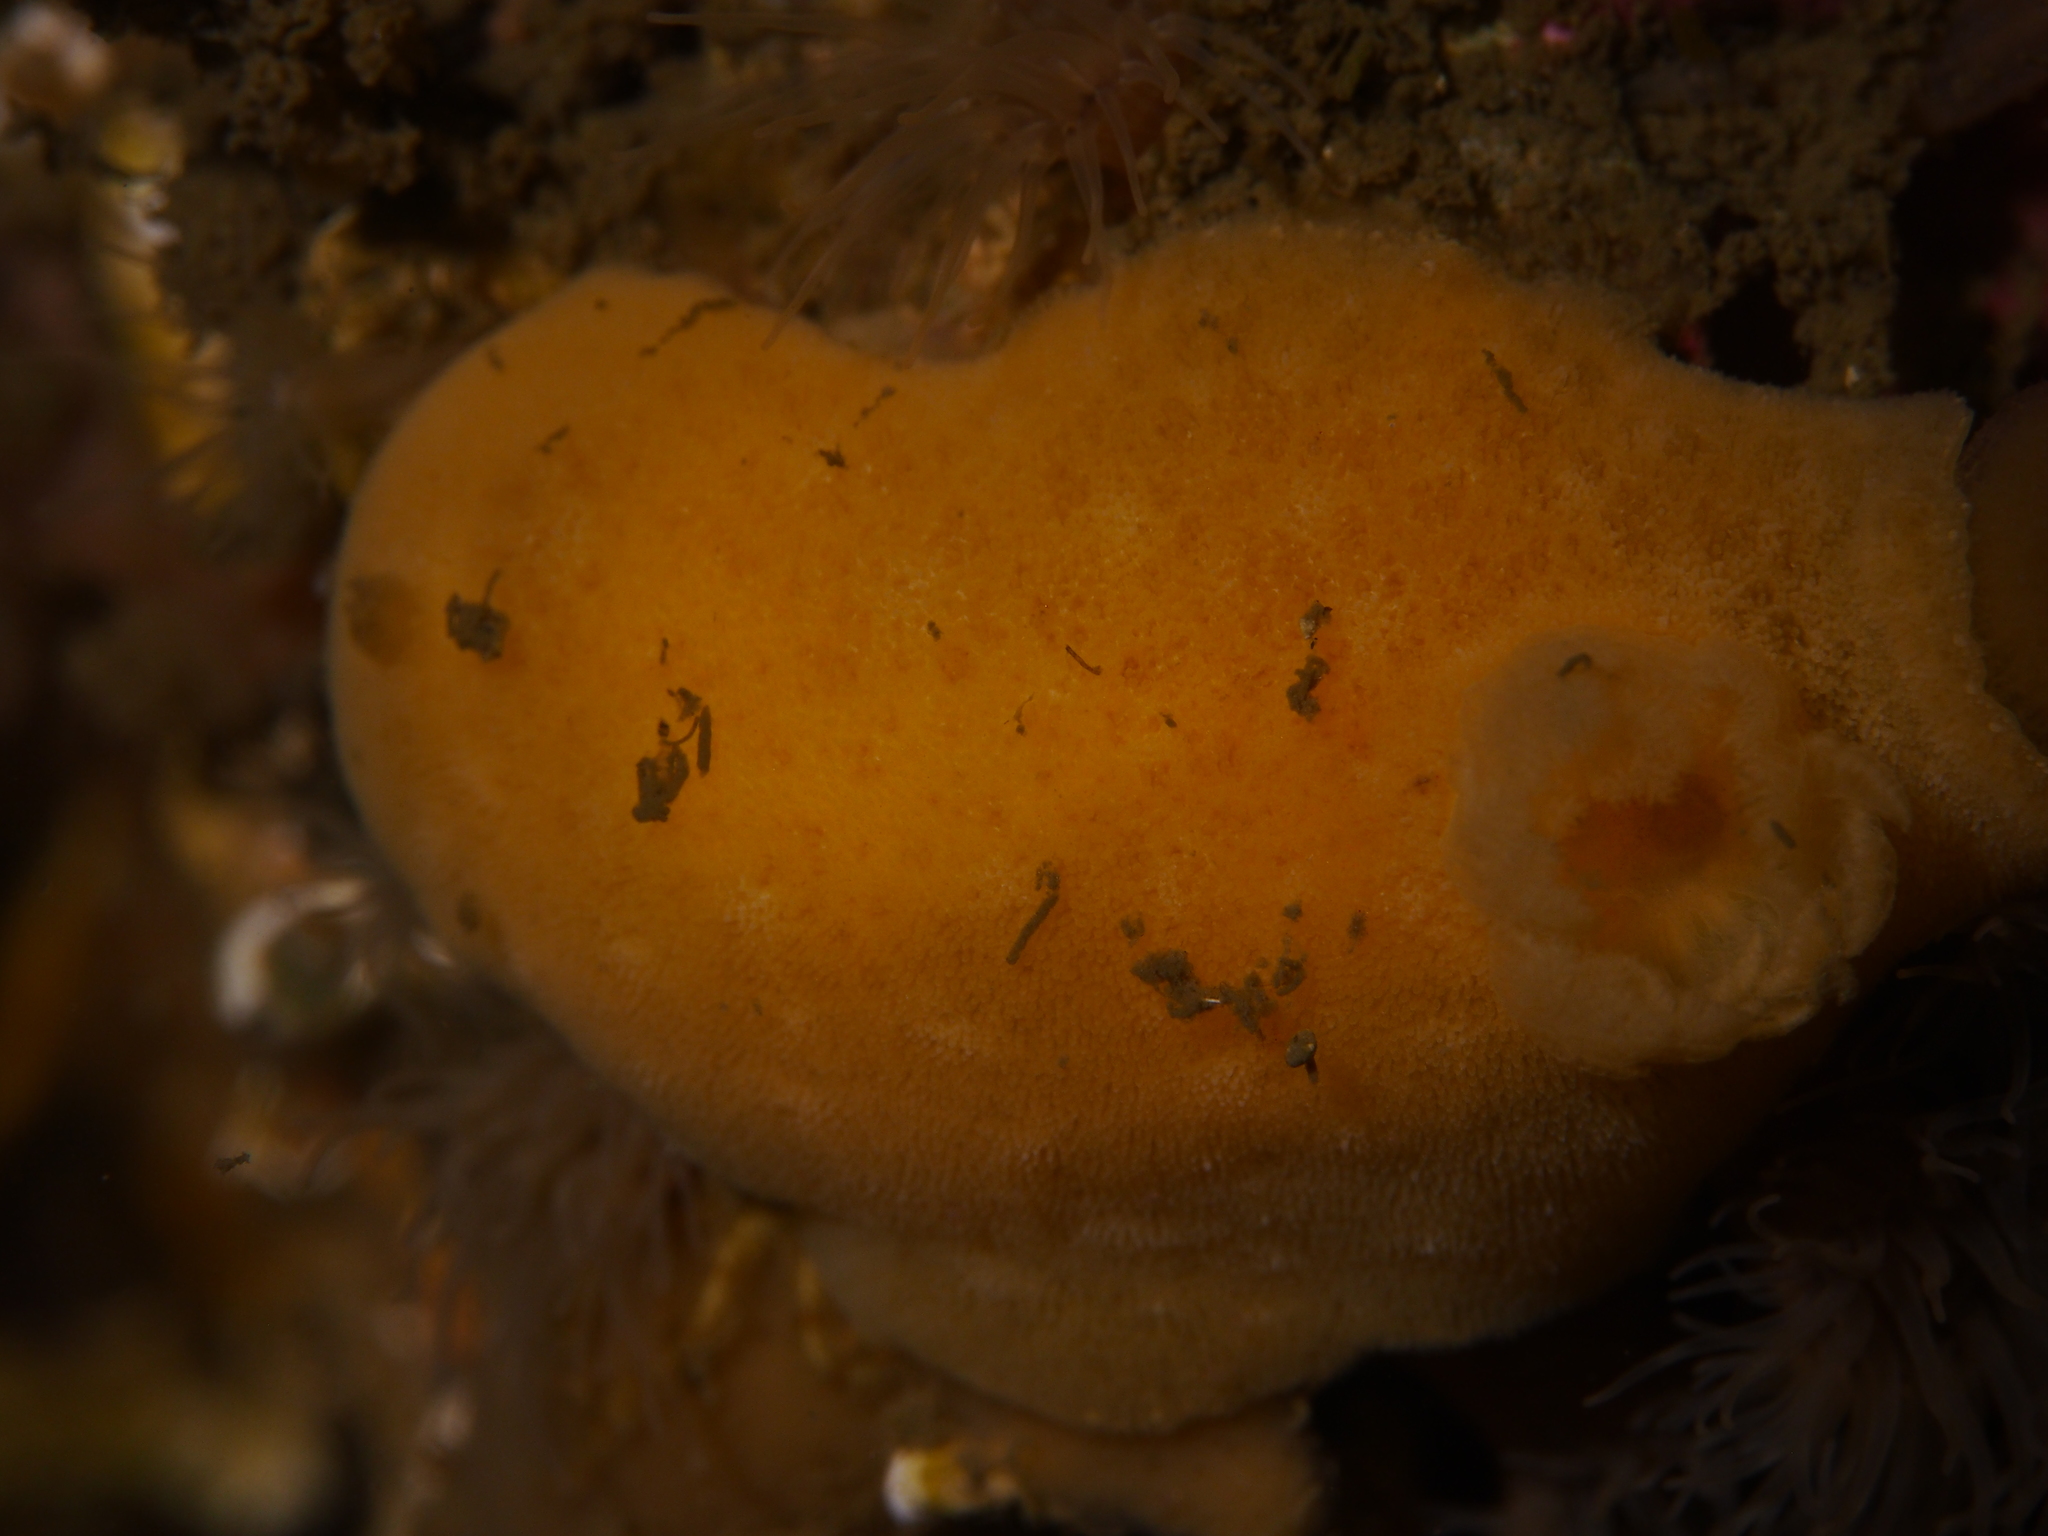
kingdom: Animalia
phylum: Mollusca
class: Gastropoda
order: Nudibranchia
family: Discodorididae
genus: Jorunna
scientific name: Jorunna tomentosa
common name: Grey sea slug
